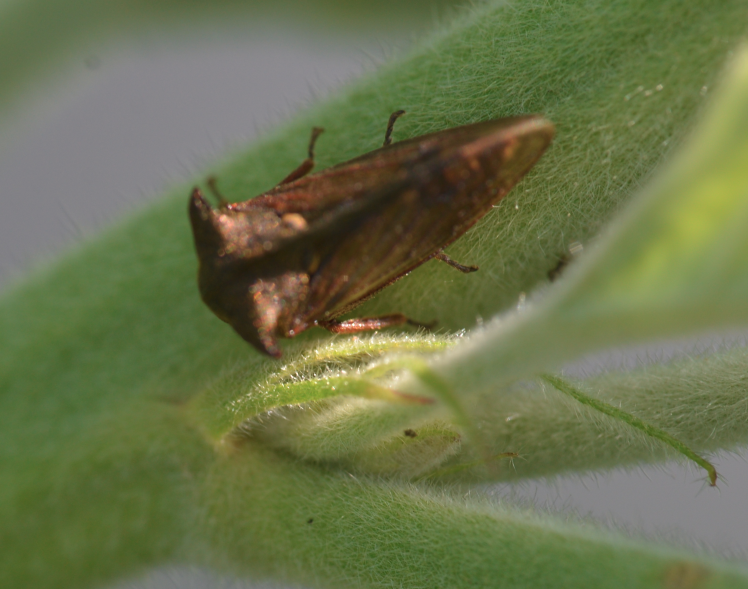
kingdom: Animalia
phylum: Arthropoda
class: Insecta
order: Hemiptera
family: Membracidae
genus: Centrotus
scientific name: Centrotus cornuta
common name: Treehopper
